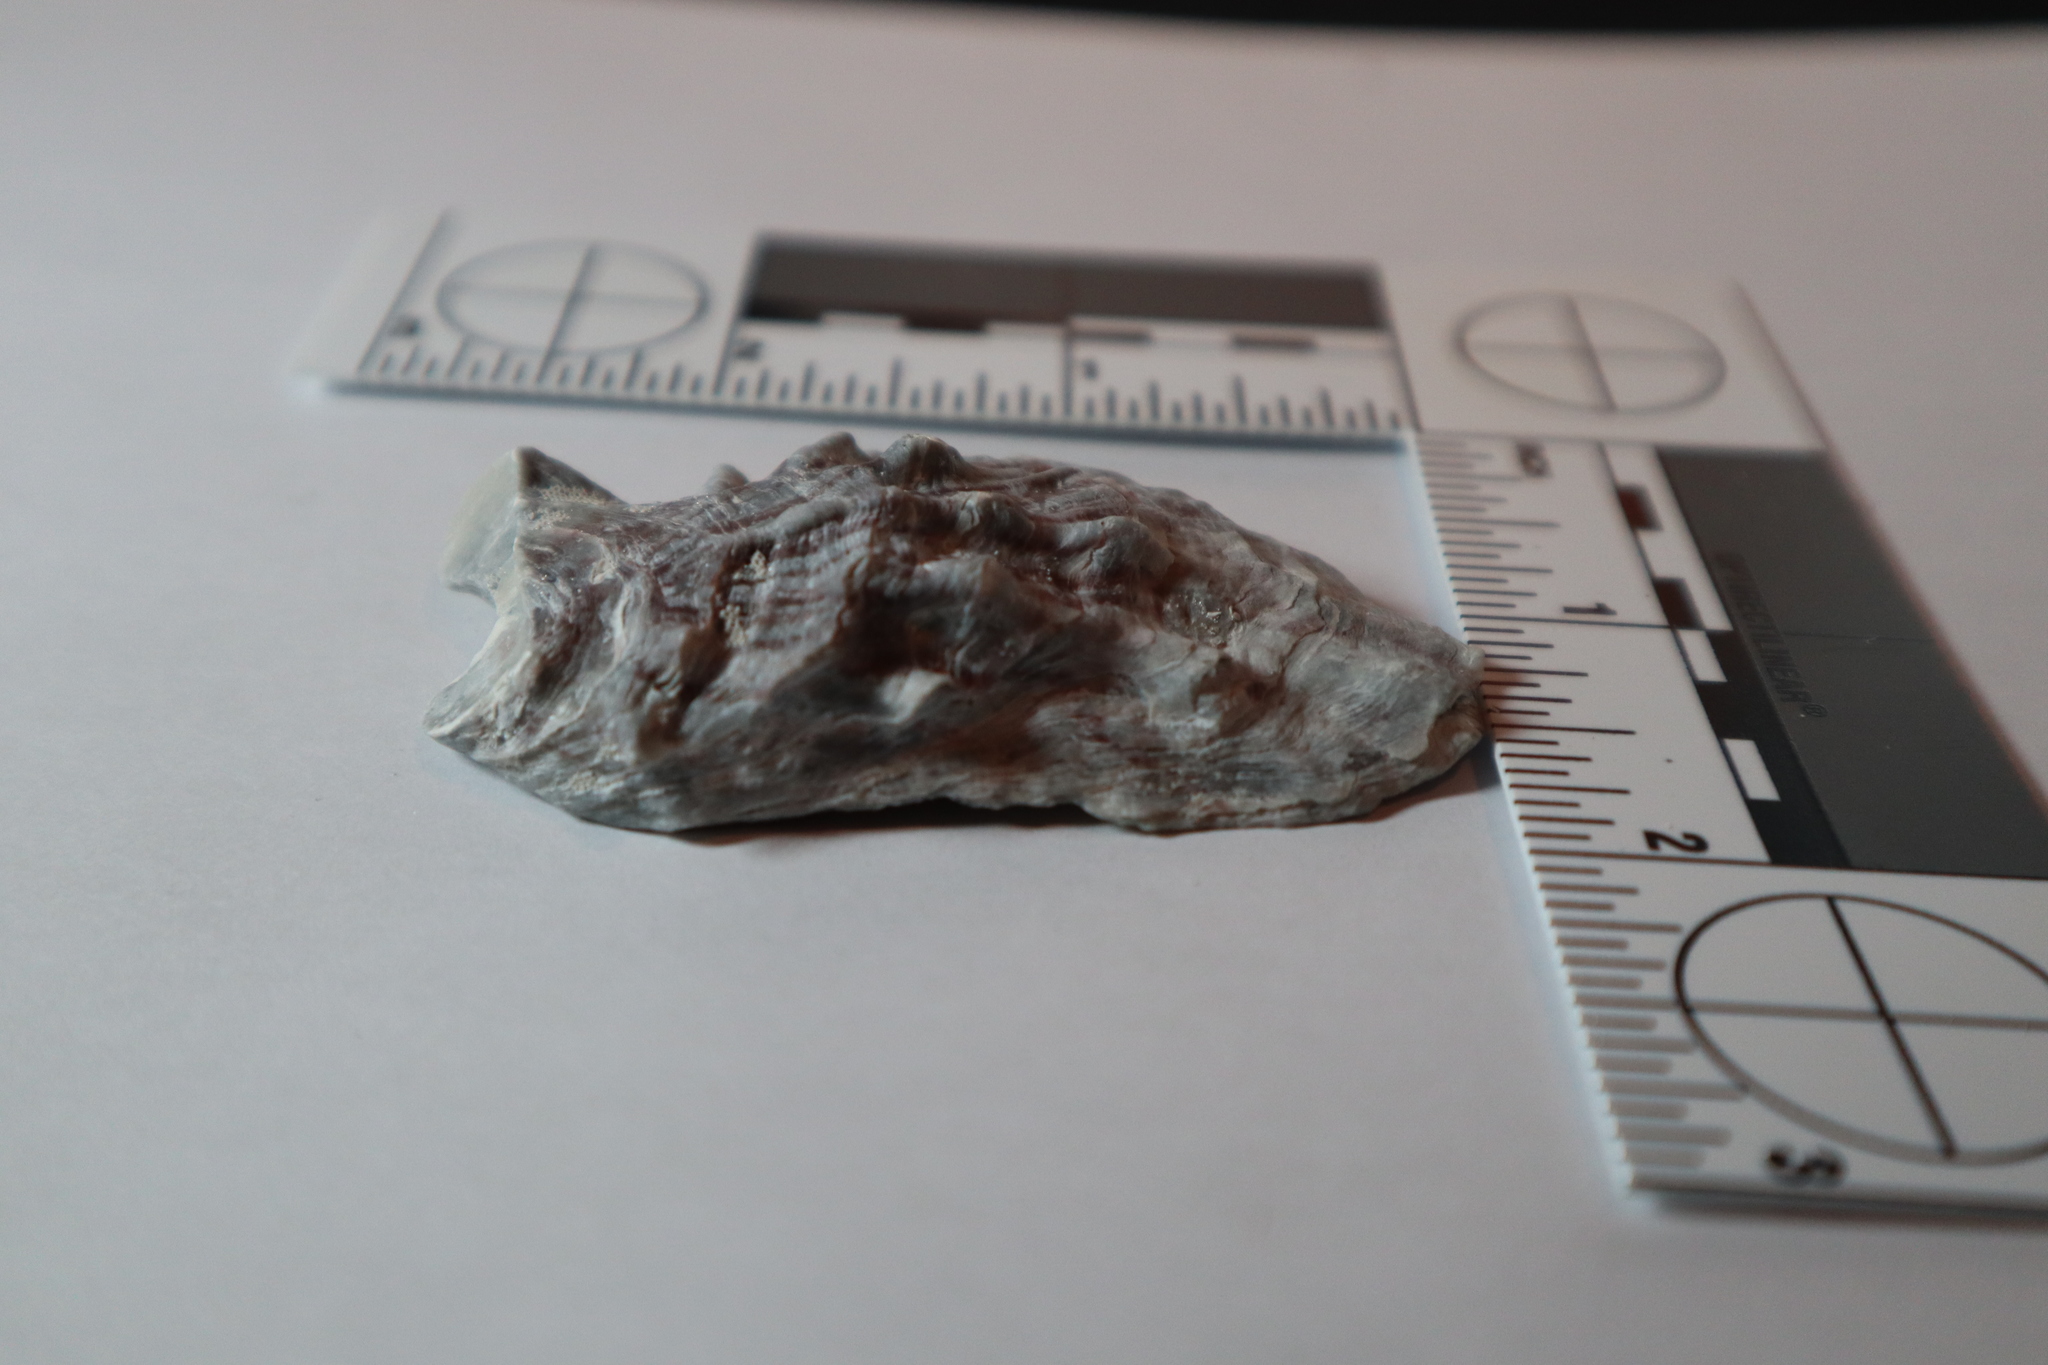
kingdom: Animalia
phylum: Mollusca
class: Bivalvia
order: Ostreida
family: Ostreidae
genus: Crassostrea
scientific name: Crassostrea virginica
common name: American oyster
